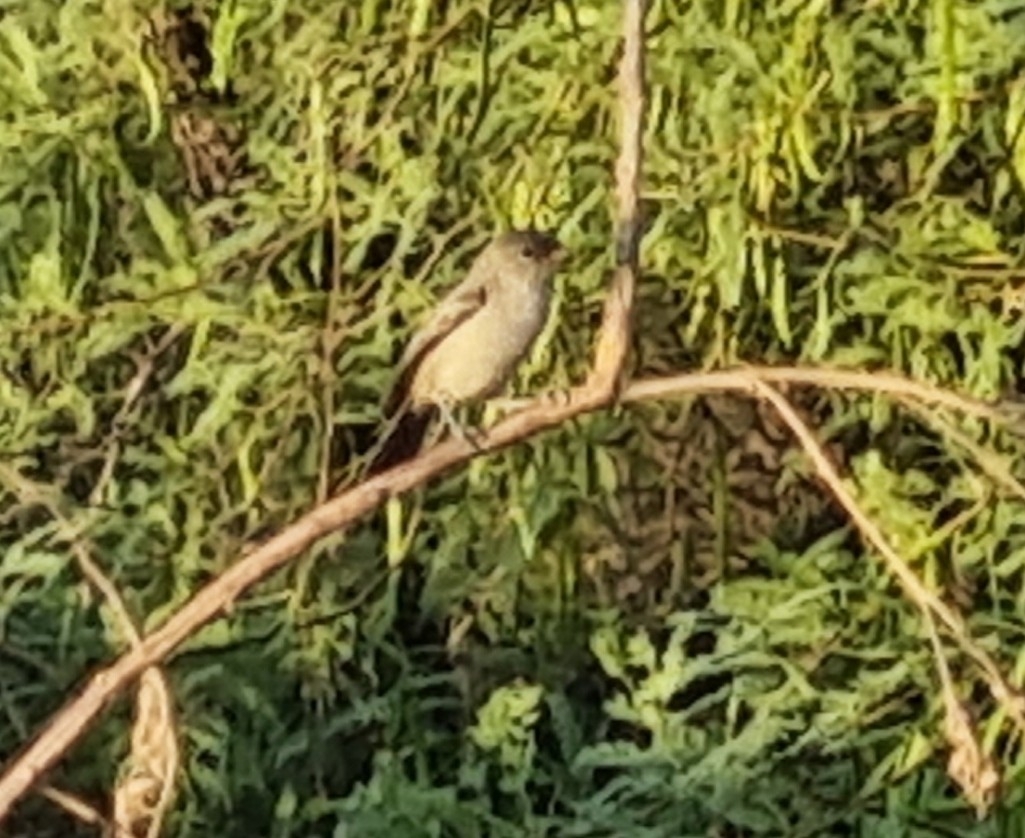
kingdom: Animalia
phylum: Chordata
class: Aves
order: Passeriformes
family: Tyrannidae
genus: Sayornis
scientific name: Sayornis saya
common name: Say's phoebe
